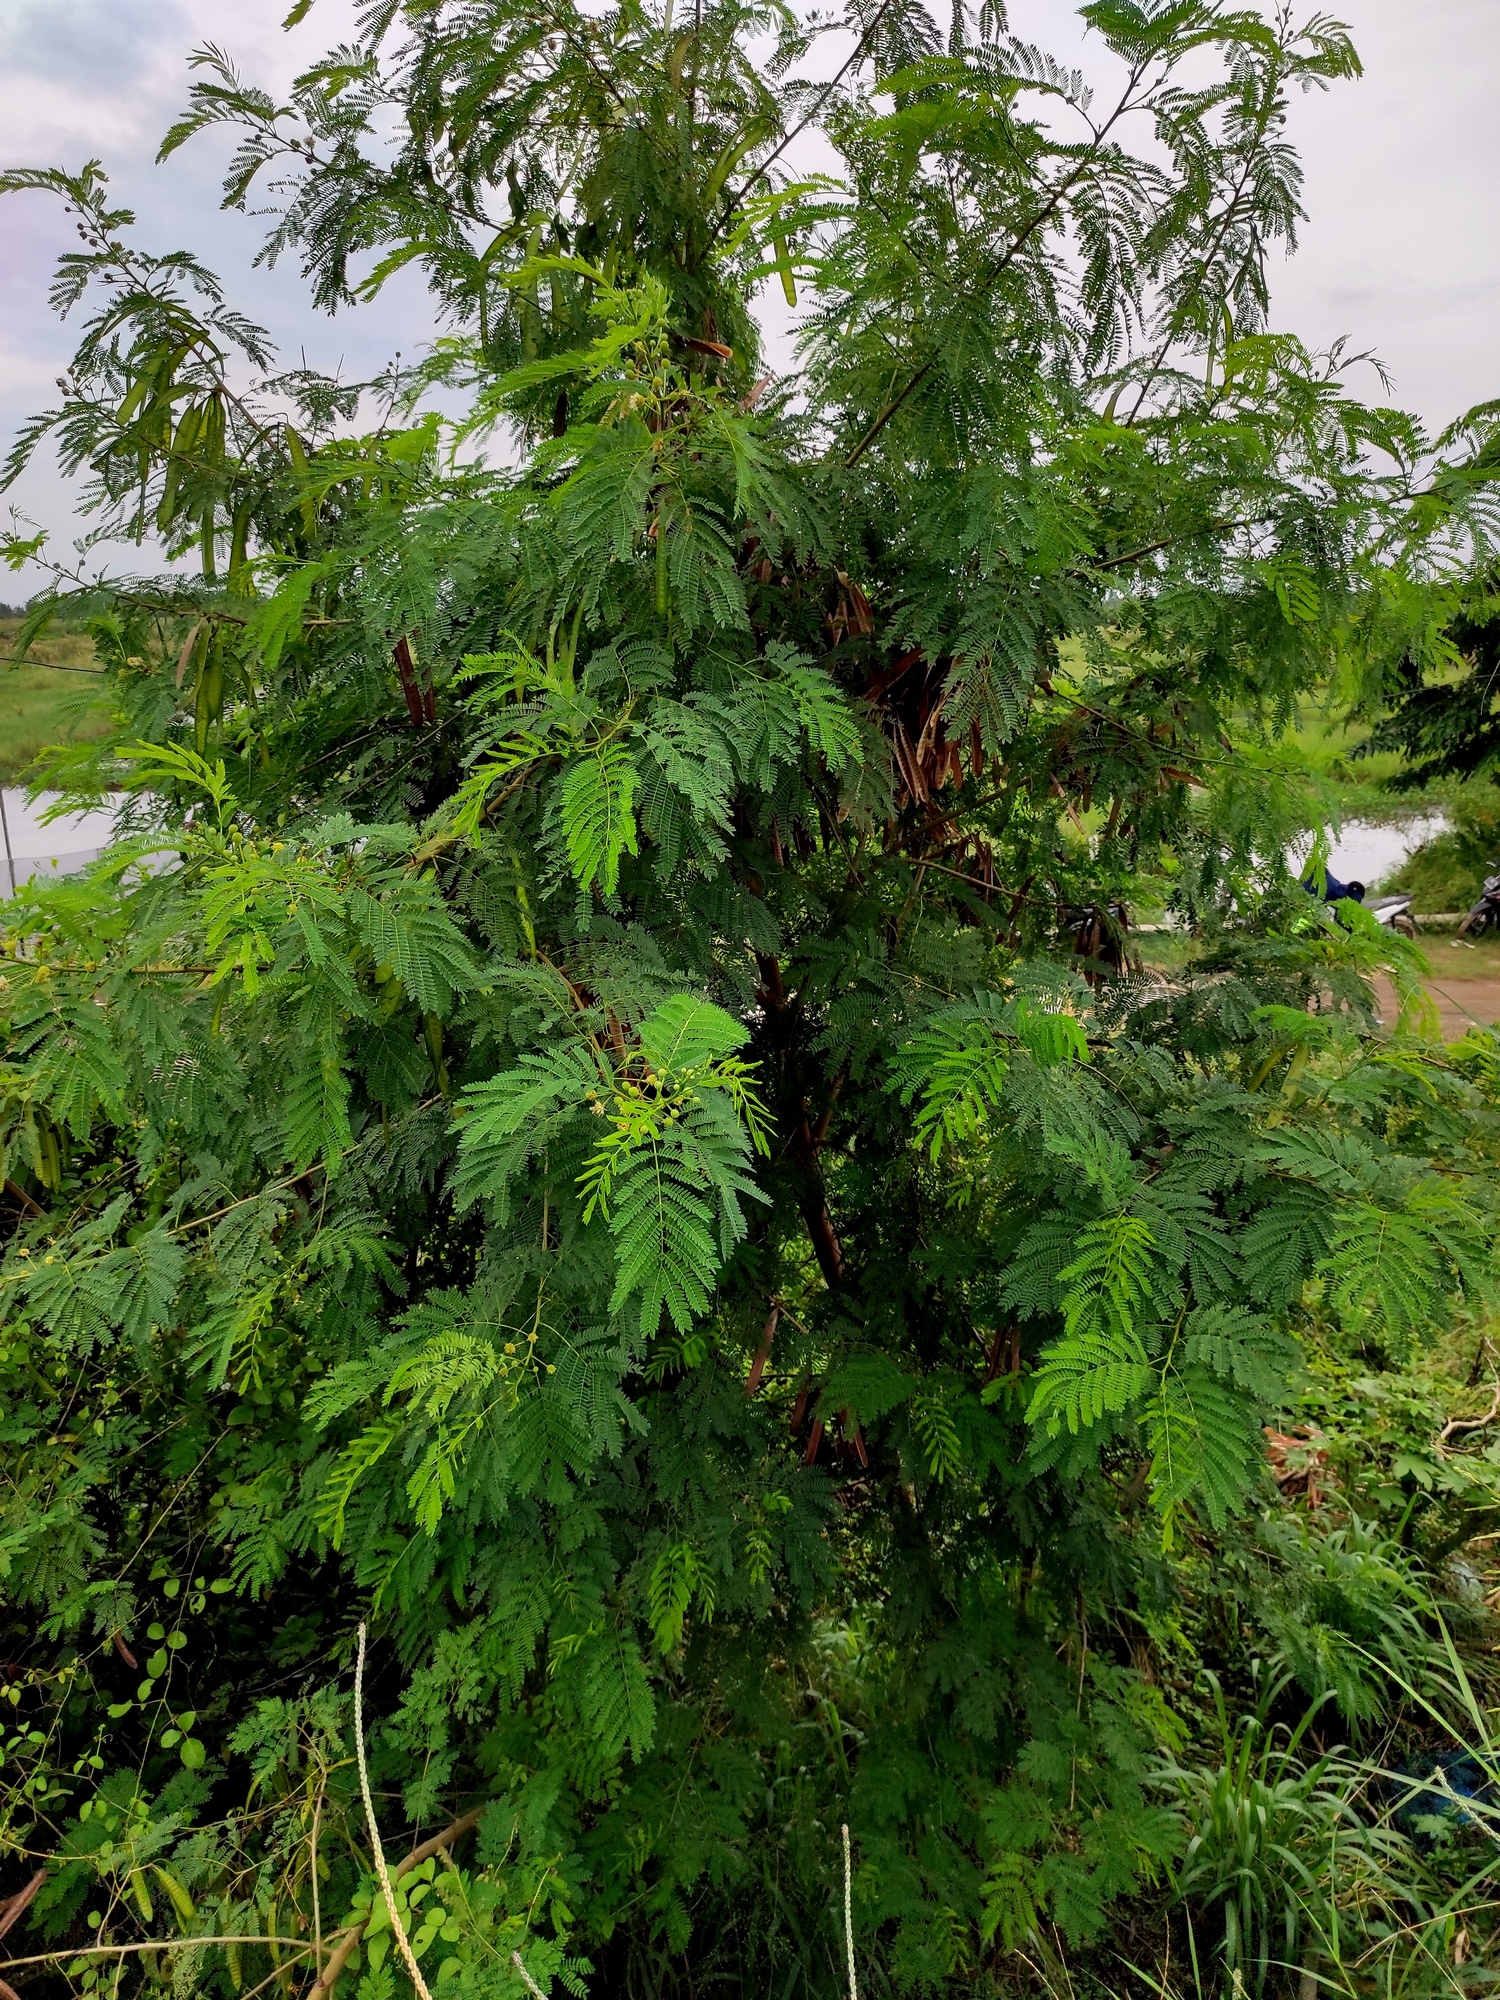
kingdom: Plantae
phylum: Tracheophyta
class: Magnoliopsida
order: Fabales
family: Fabaceae
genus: Leucaena
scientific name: Leucaena leucocephala
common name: White leadtree
